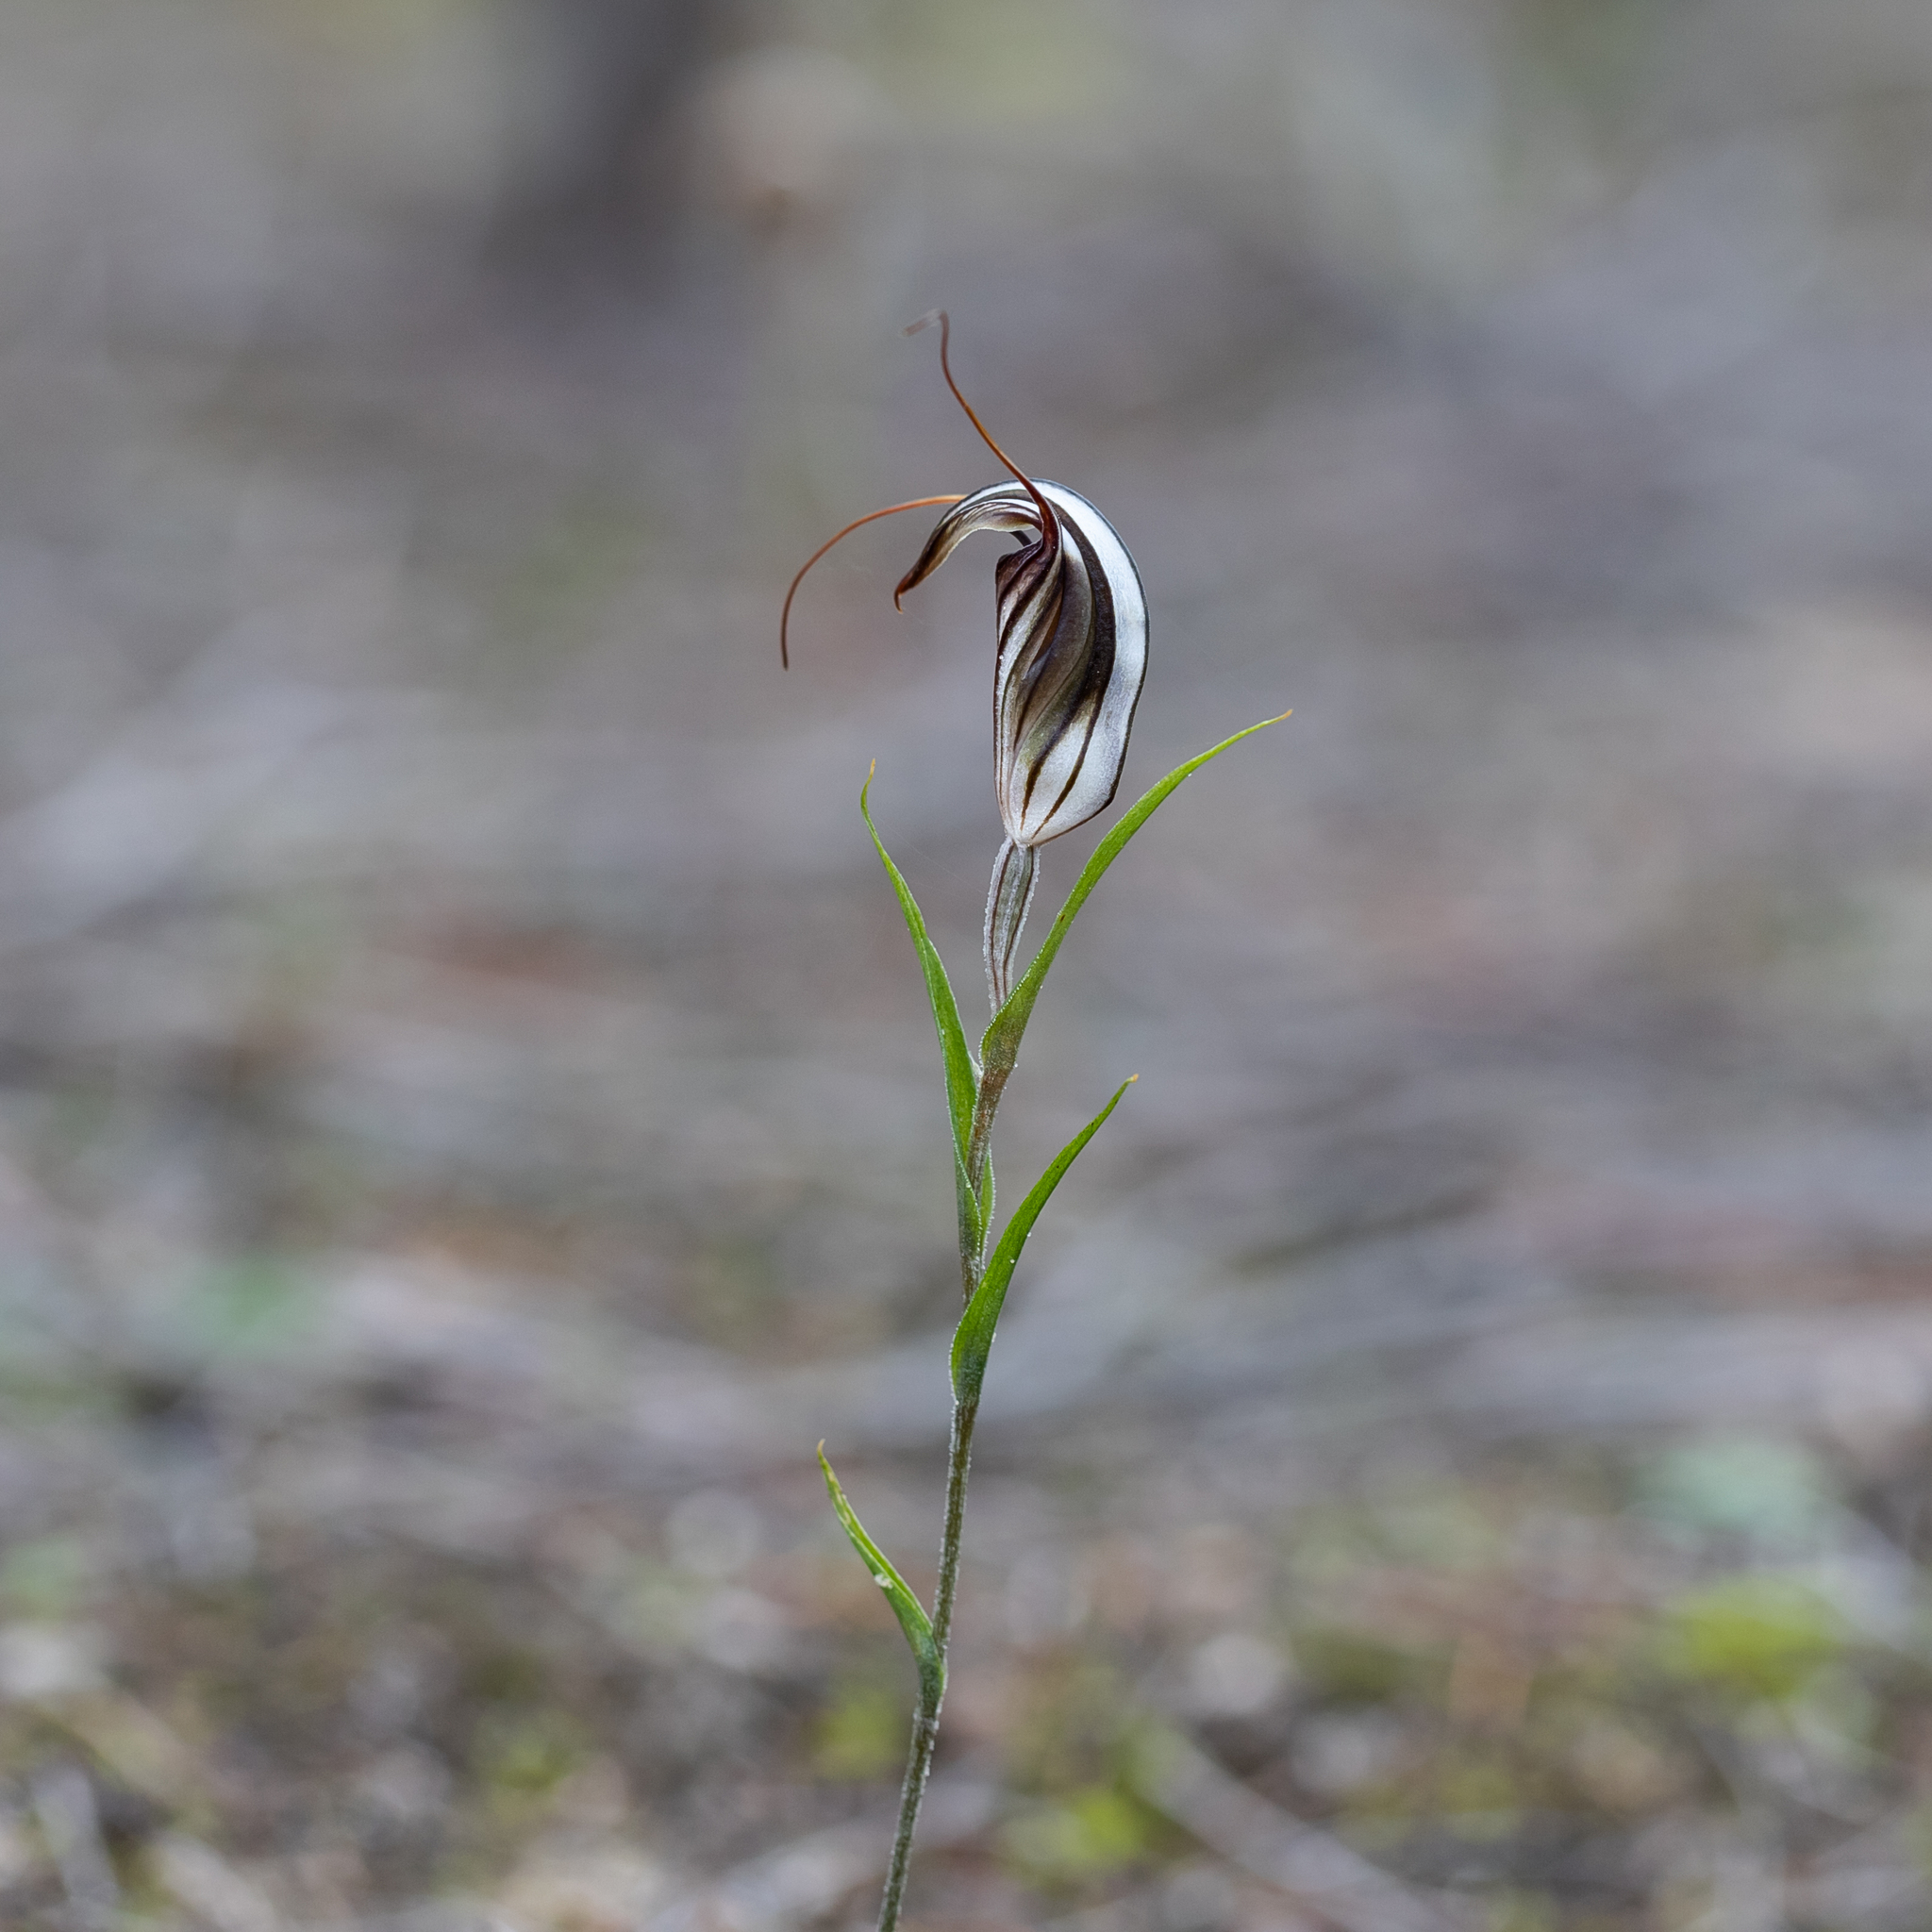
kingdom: Plantae
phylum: Tracheophyta
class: Liliopsida
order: Asparagales
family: Orchidaceae
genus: Pterostylis
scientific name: Pterostylis dolichochila
